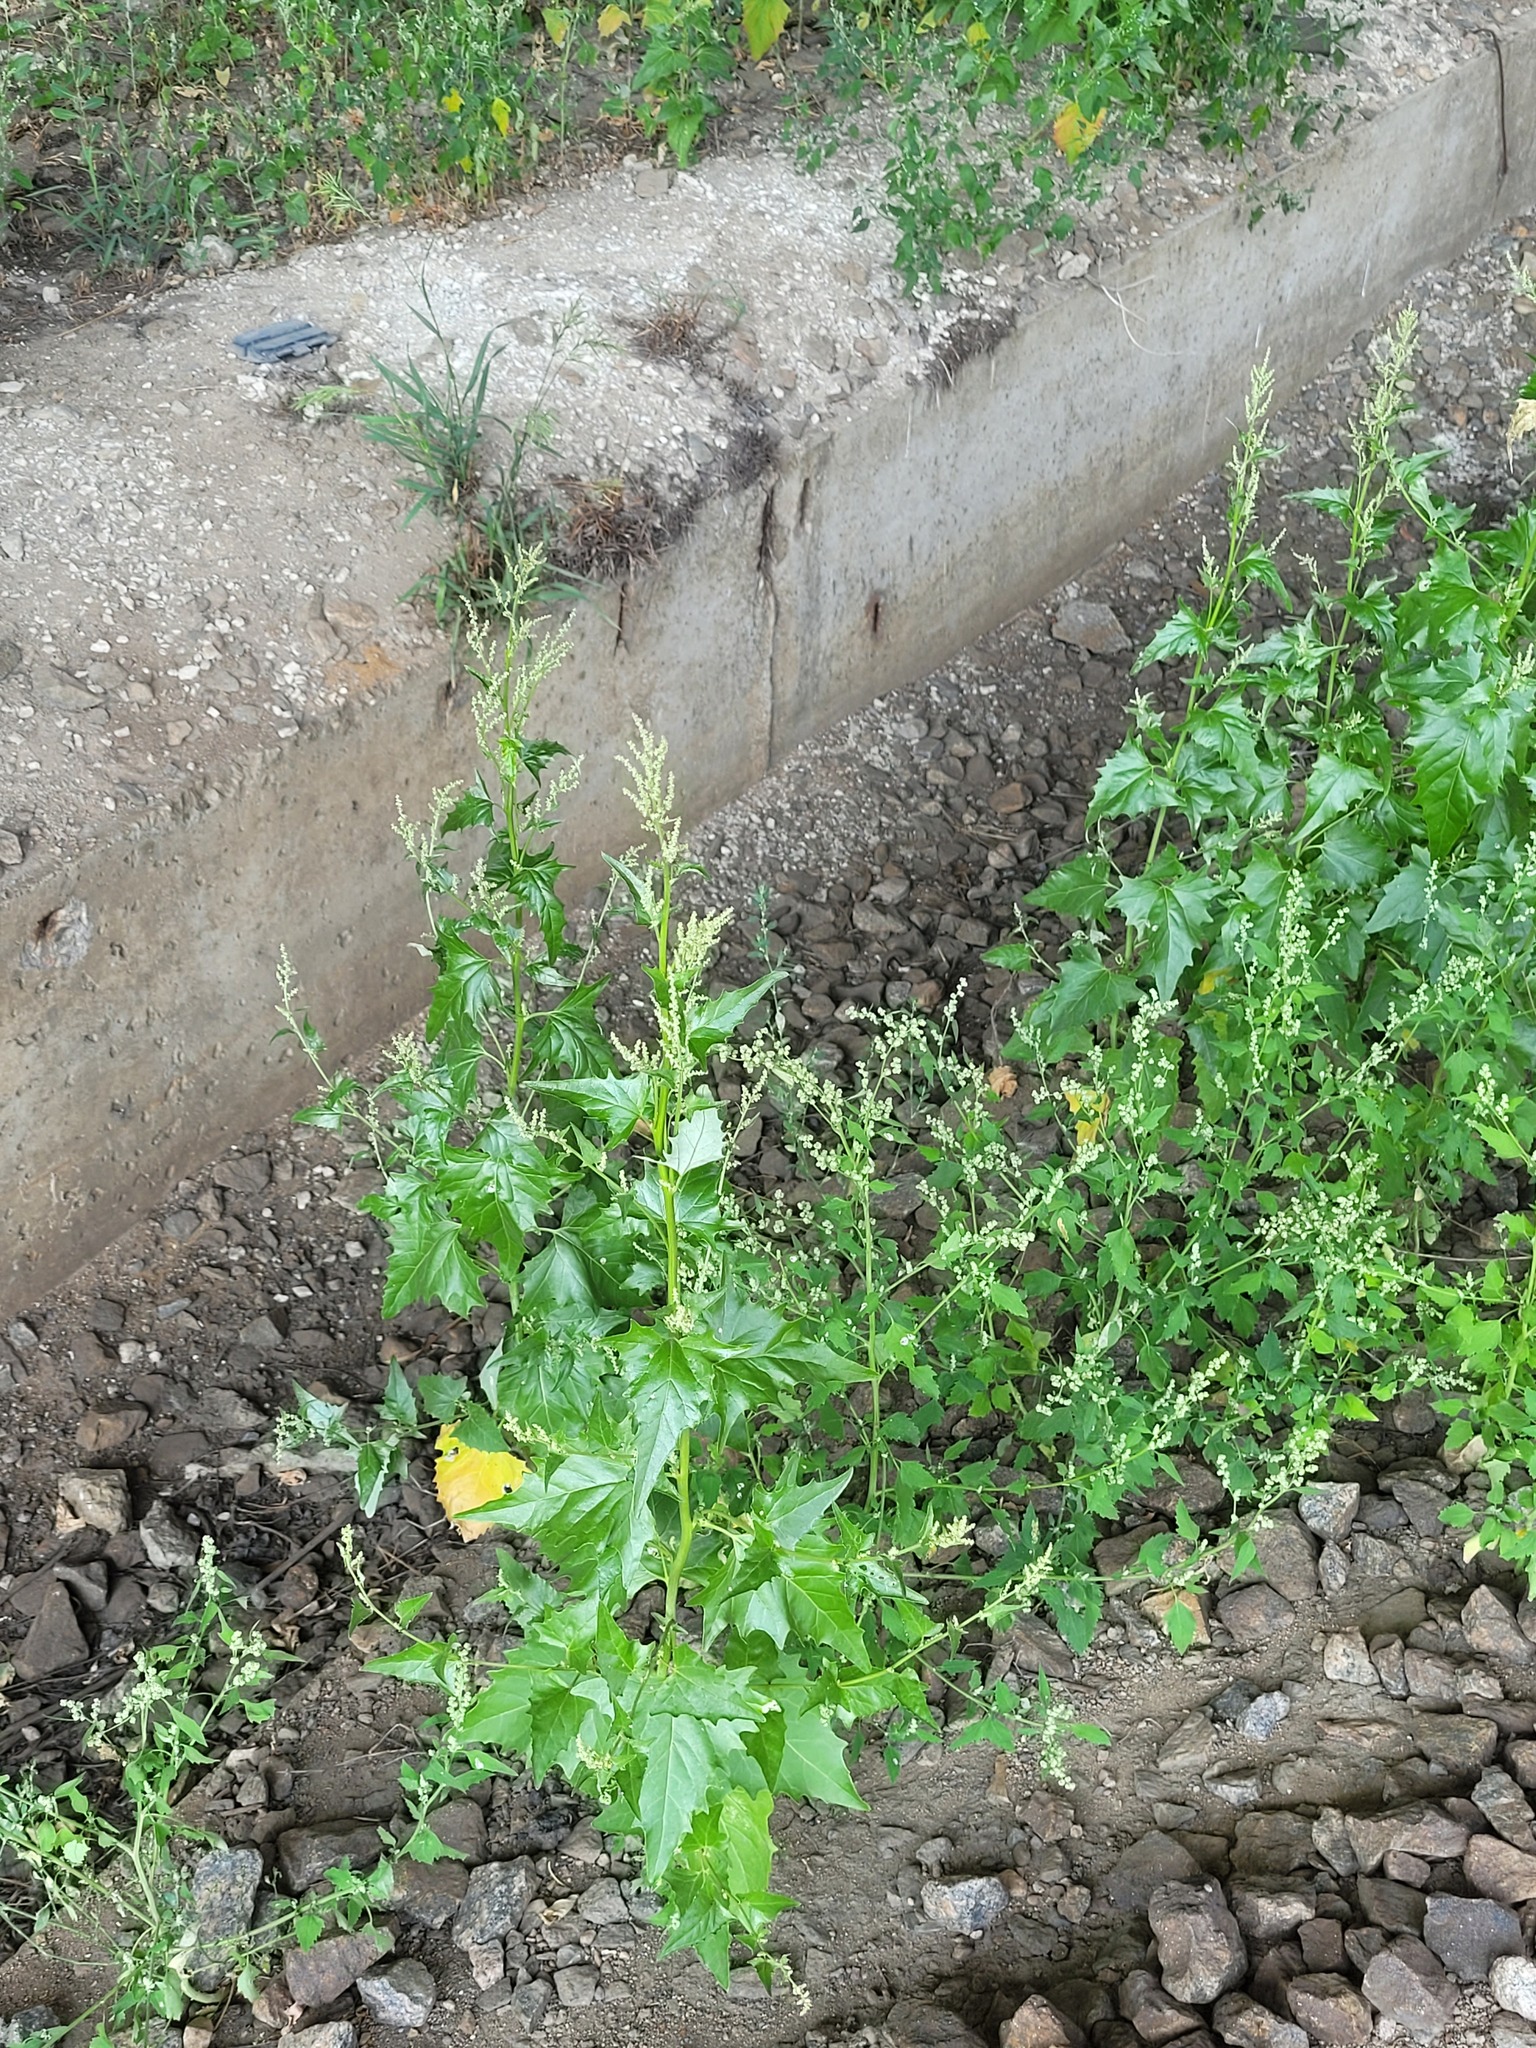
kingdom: Plantae
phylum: Tracheophyta
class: Magnoliopsida
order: Caryophyllales
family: Amaranthaceae
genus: Atriplex
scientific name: Atriplex sagittata
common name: Purple orache
